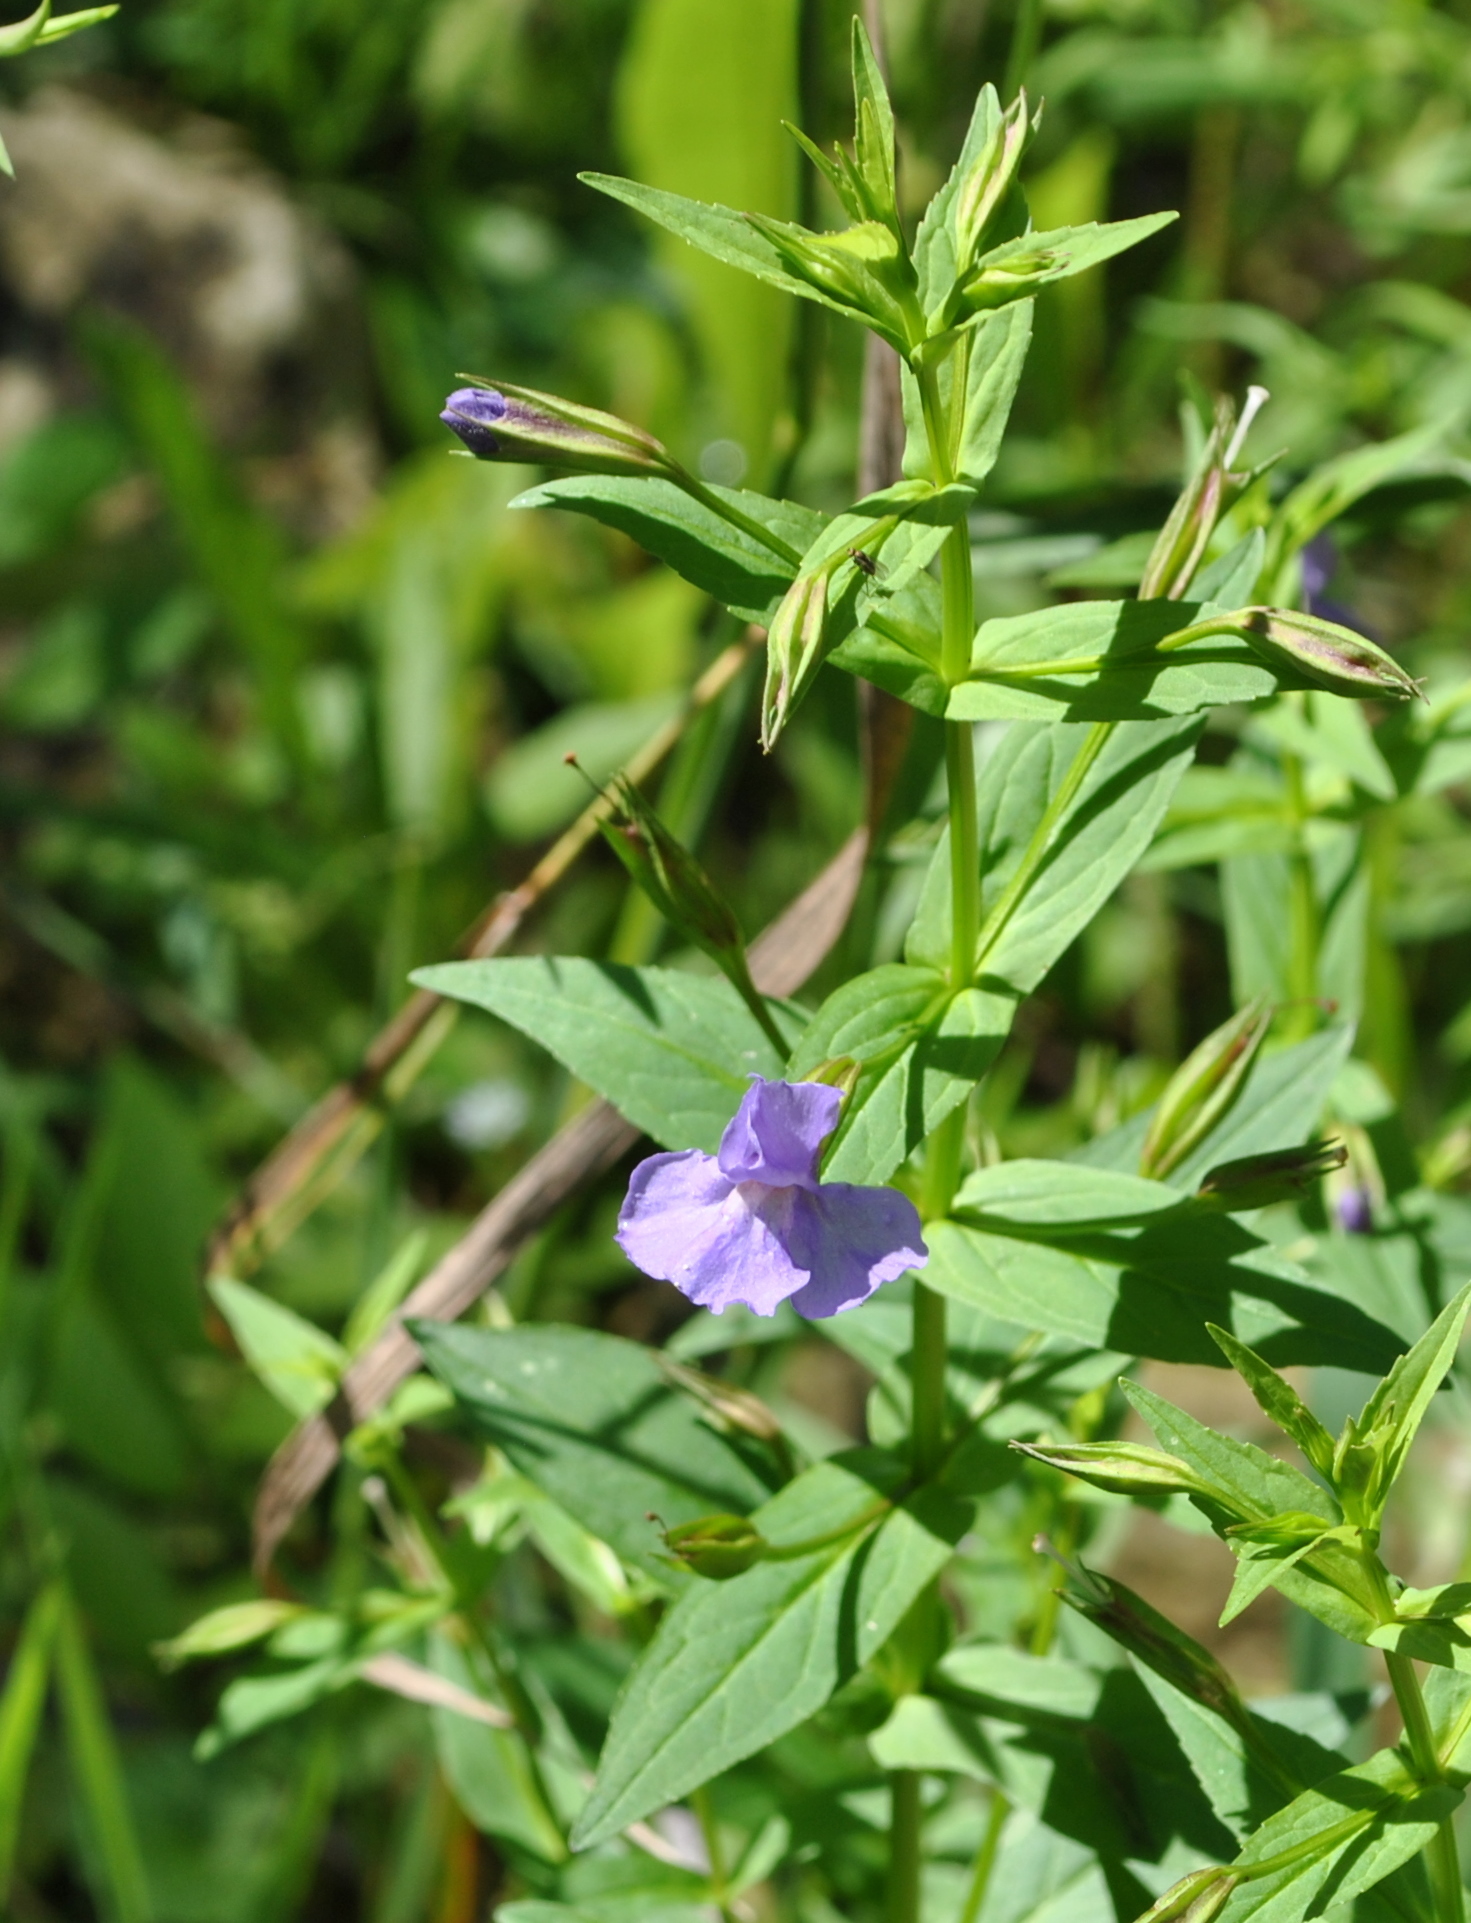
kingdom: Plantae
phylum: Tracheophyta
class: Magnoliopsida
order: Lamiales
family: Phrymaceae
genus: Mimulus
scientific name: Mimulus ringens
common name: Allegheny monkeyflower
